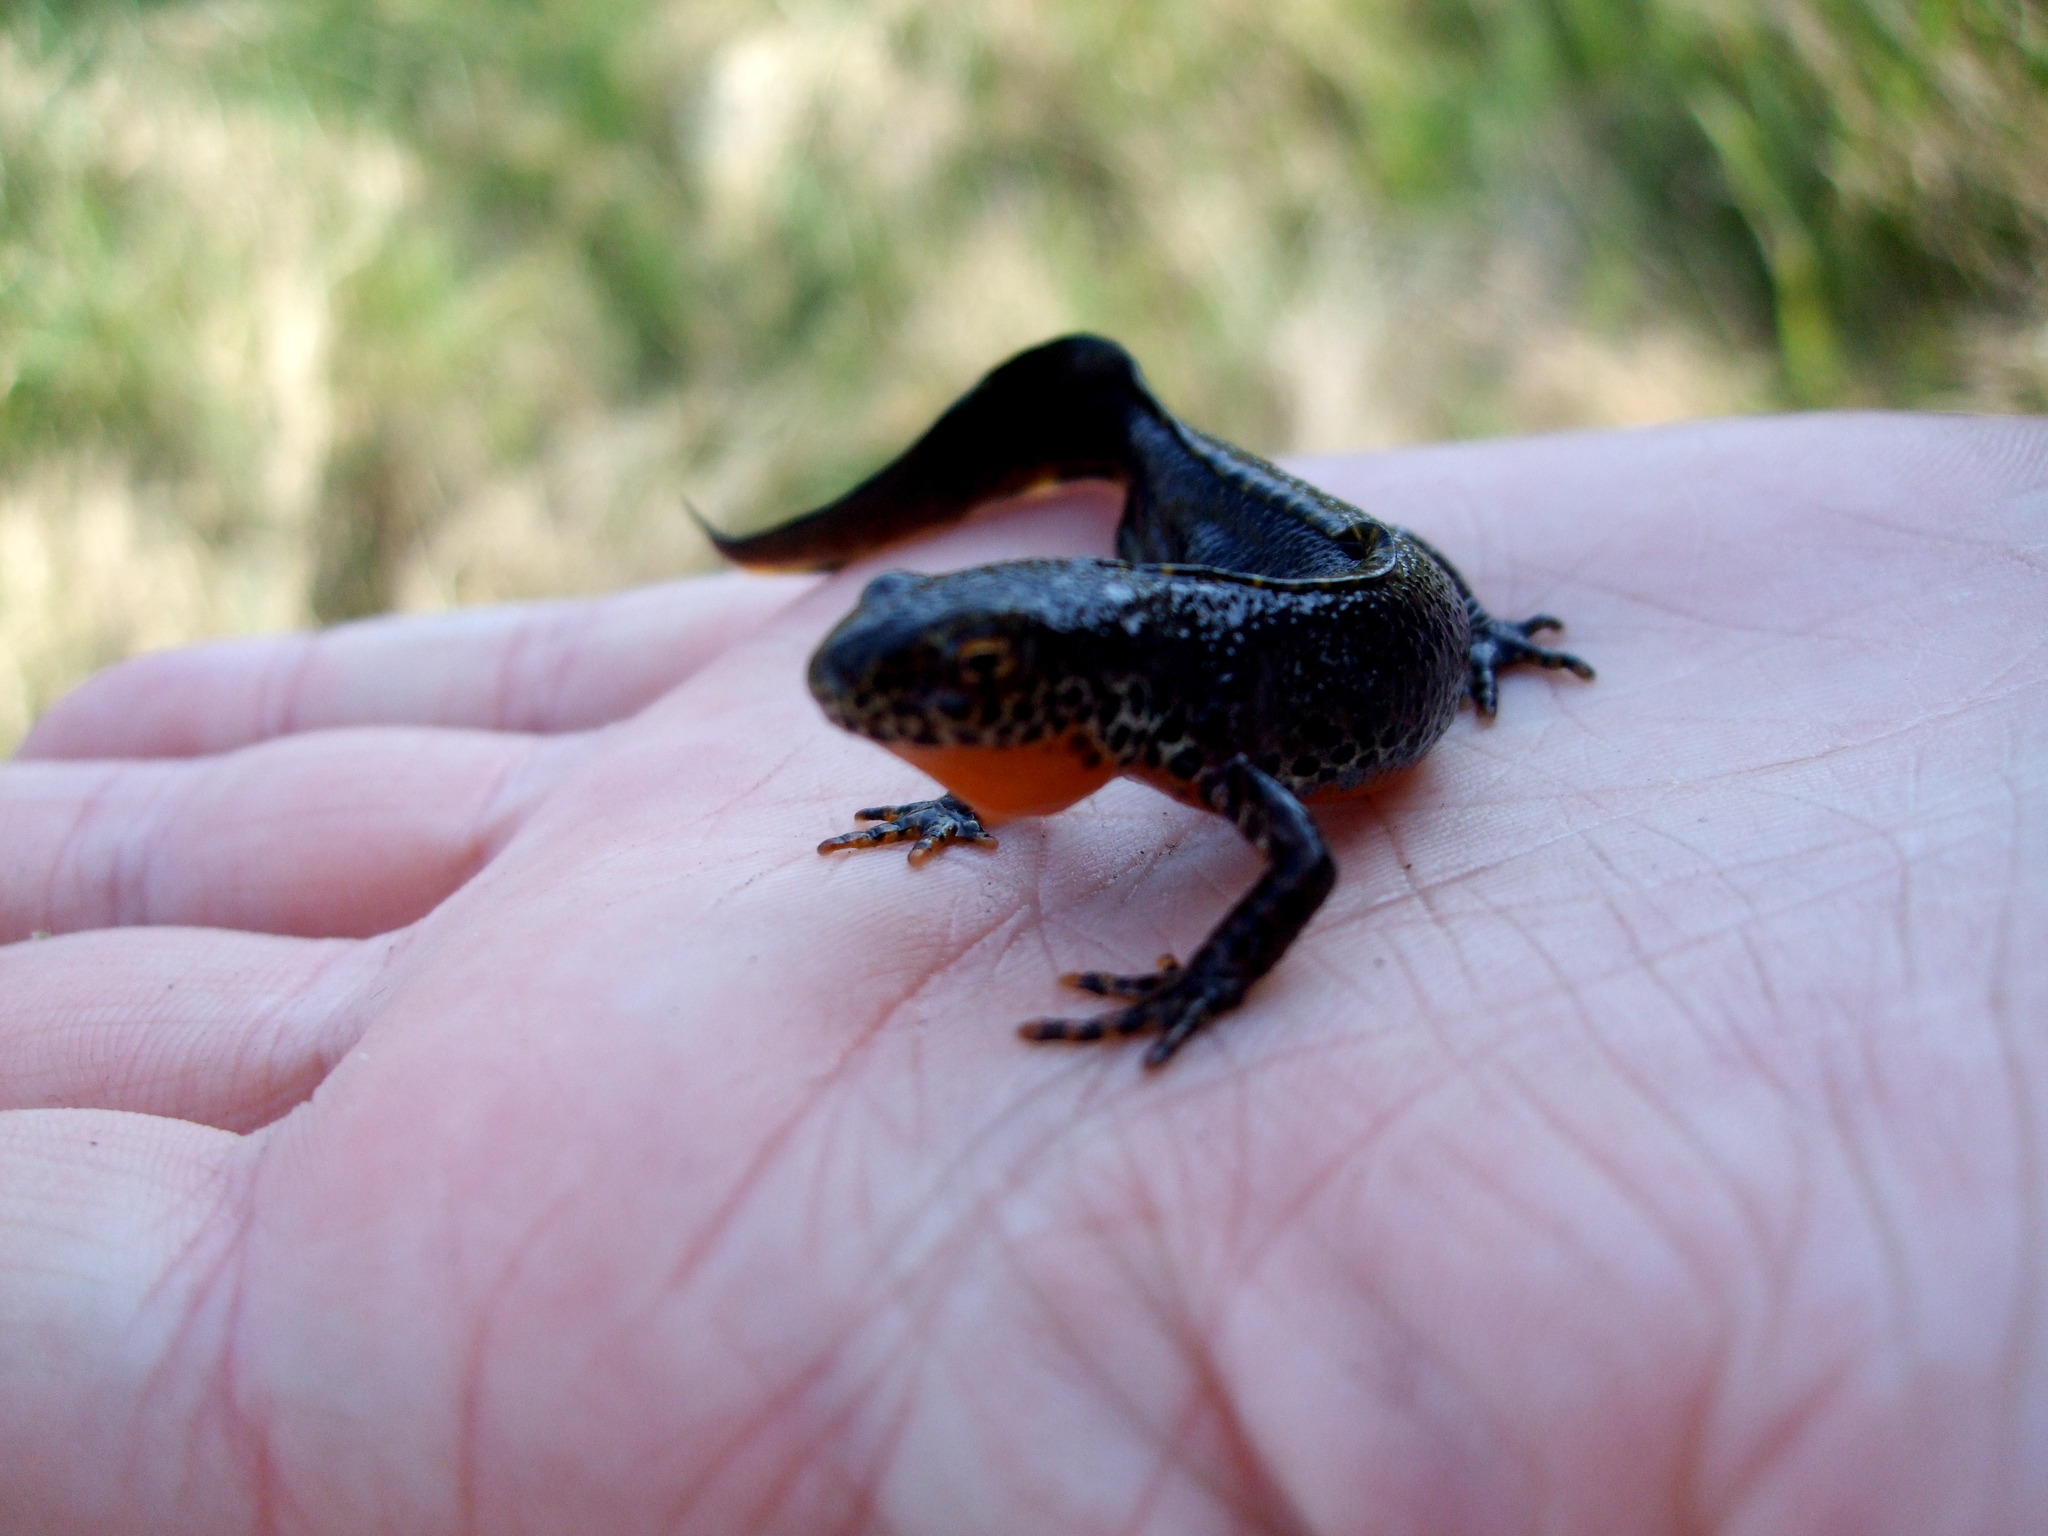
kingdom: Animalia
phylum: Chordata
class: Amphibia
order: Caudata
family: Salamandridae
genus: Ichthyosaura
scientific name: Ichthyosaura alpestris
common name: Alpine newt
